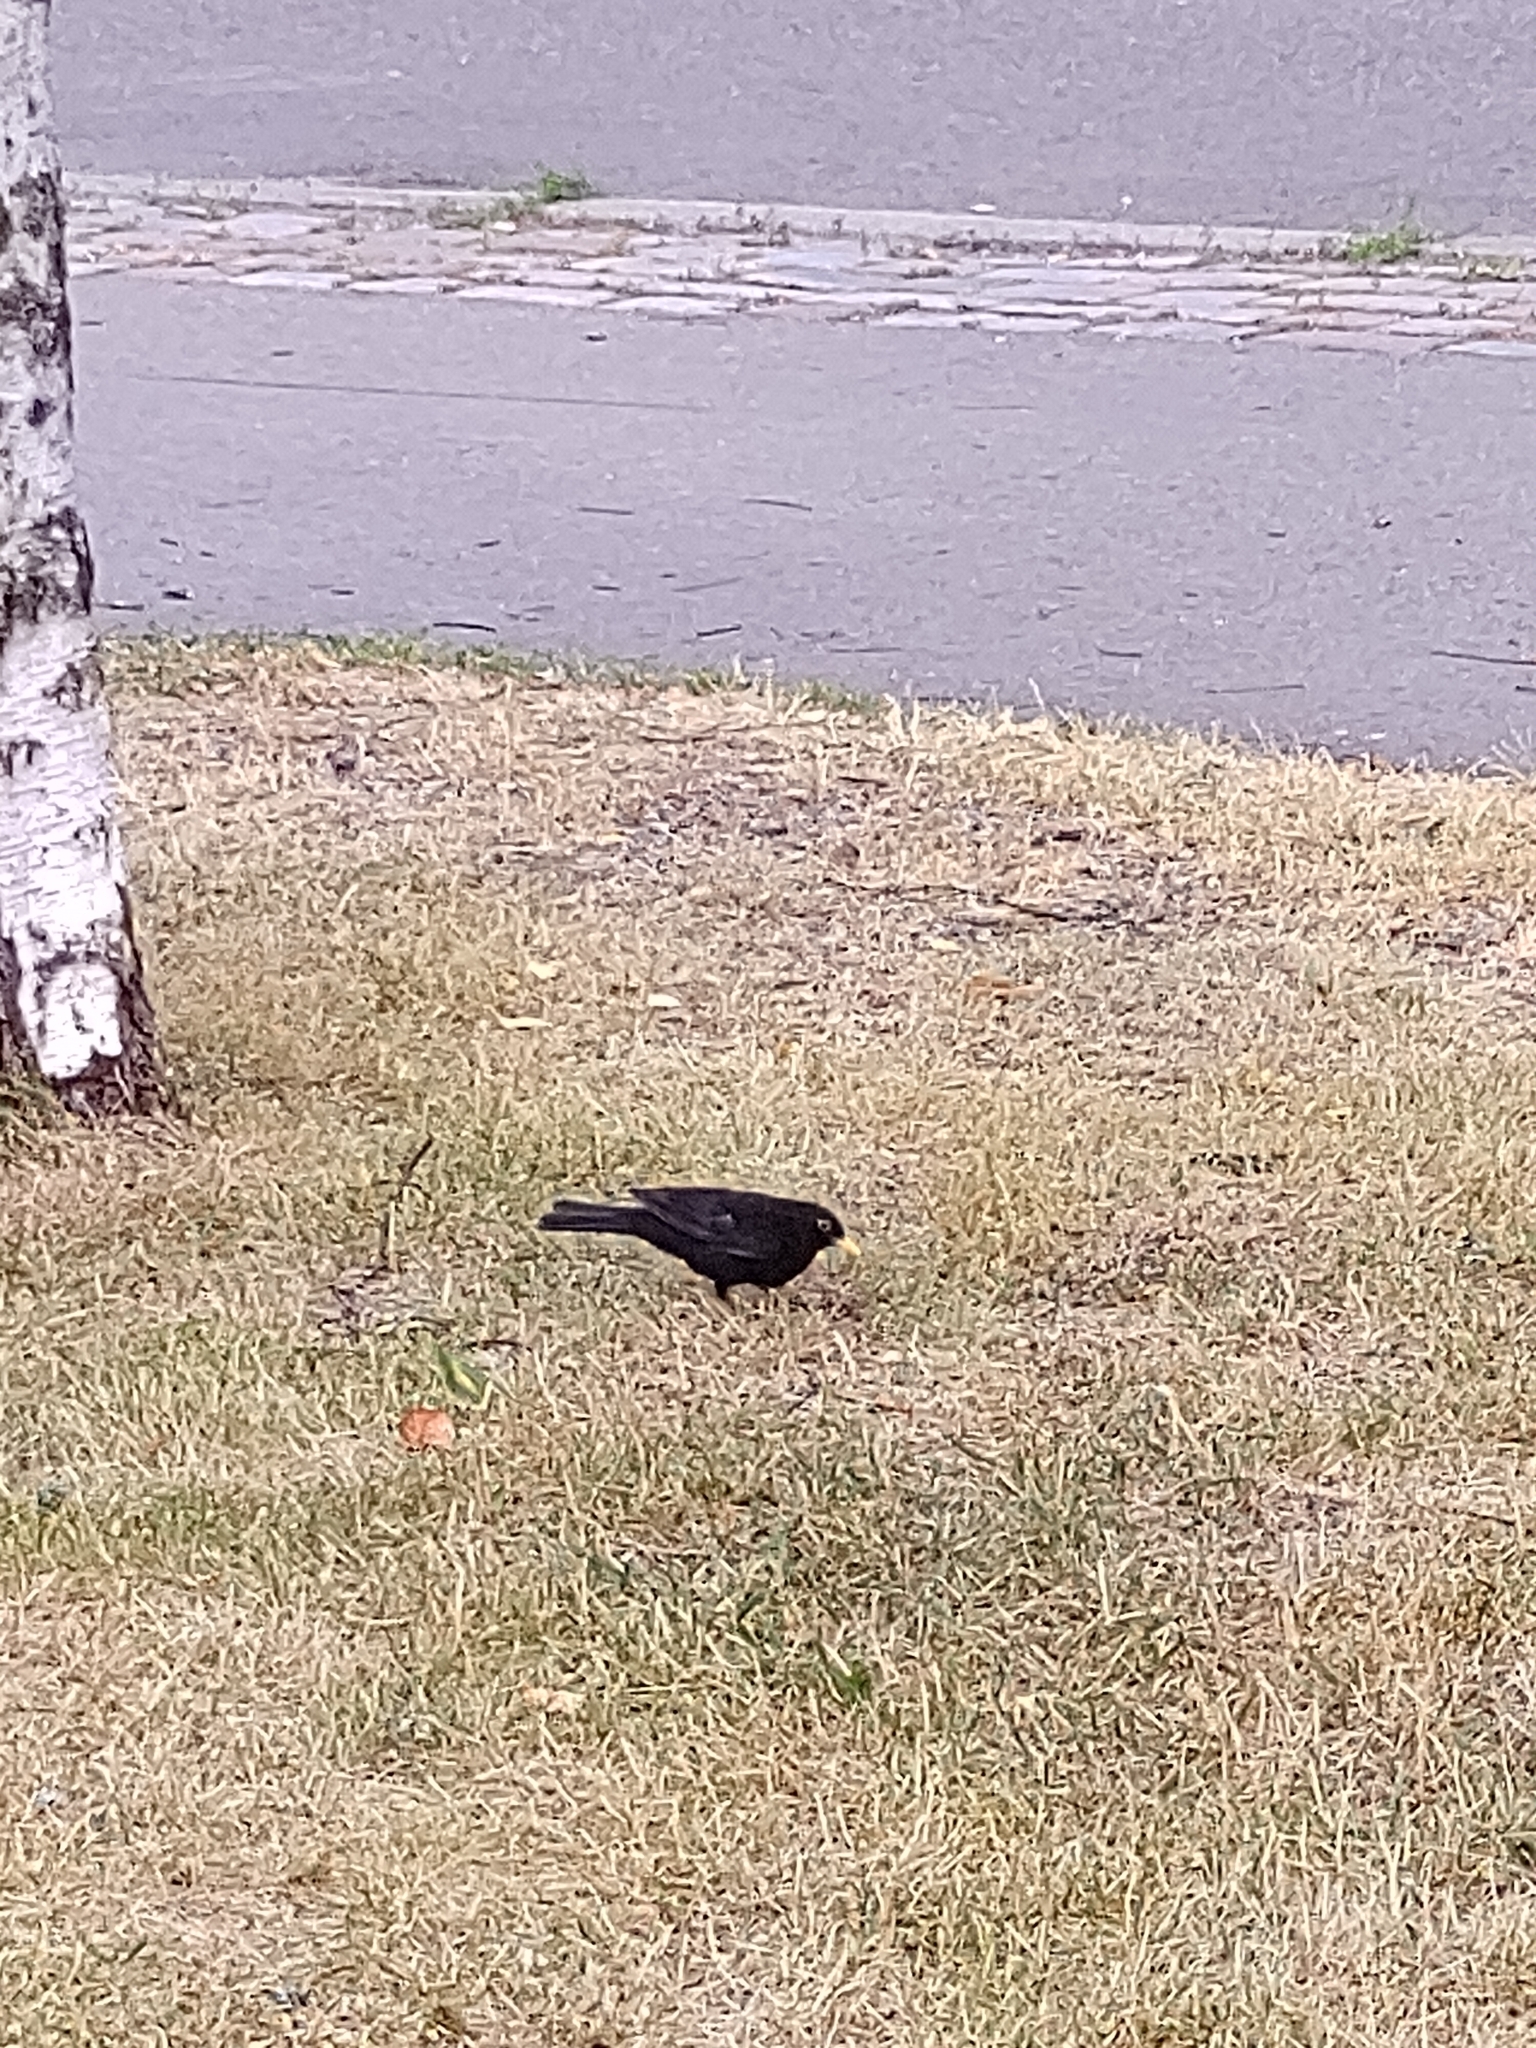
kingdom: Animalia
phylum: Chordata
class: Aves
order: Passeriformes
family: Turdidae
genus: Turdus
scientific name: Turdus merula
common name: Common blackbird
